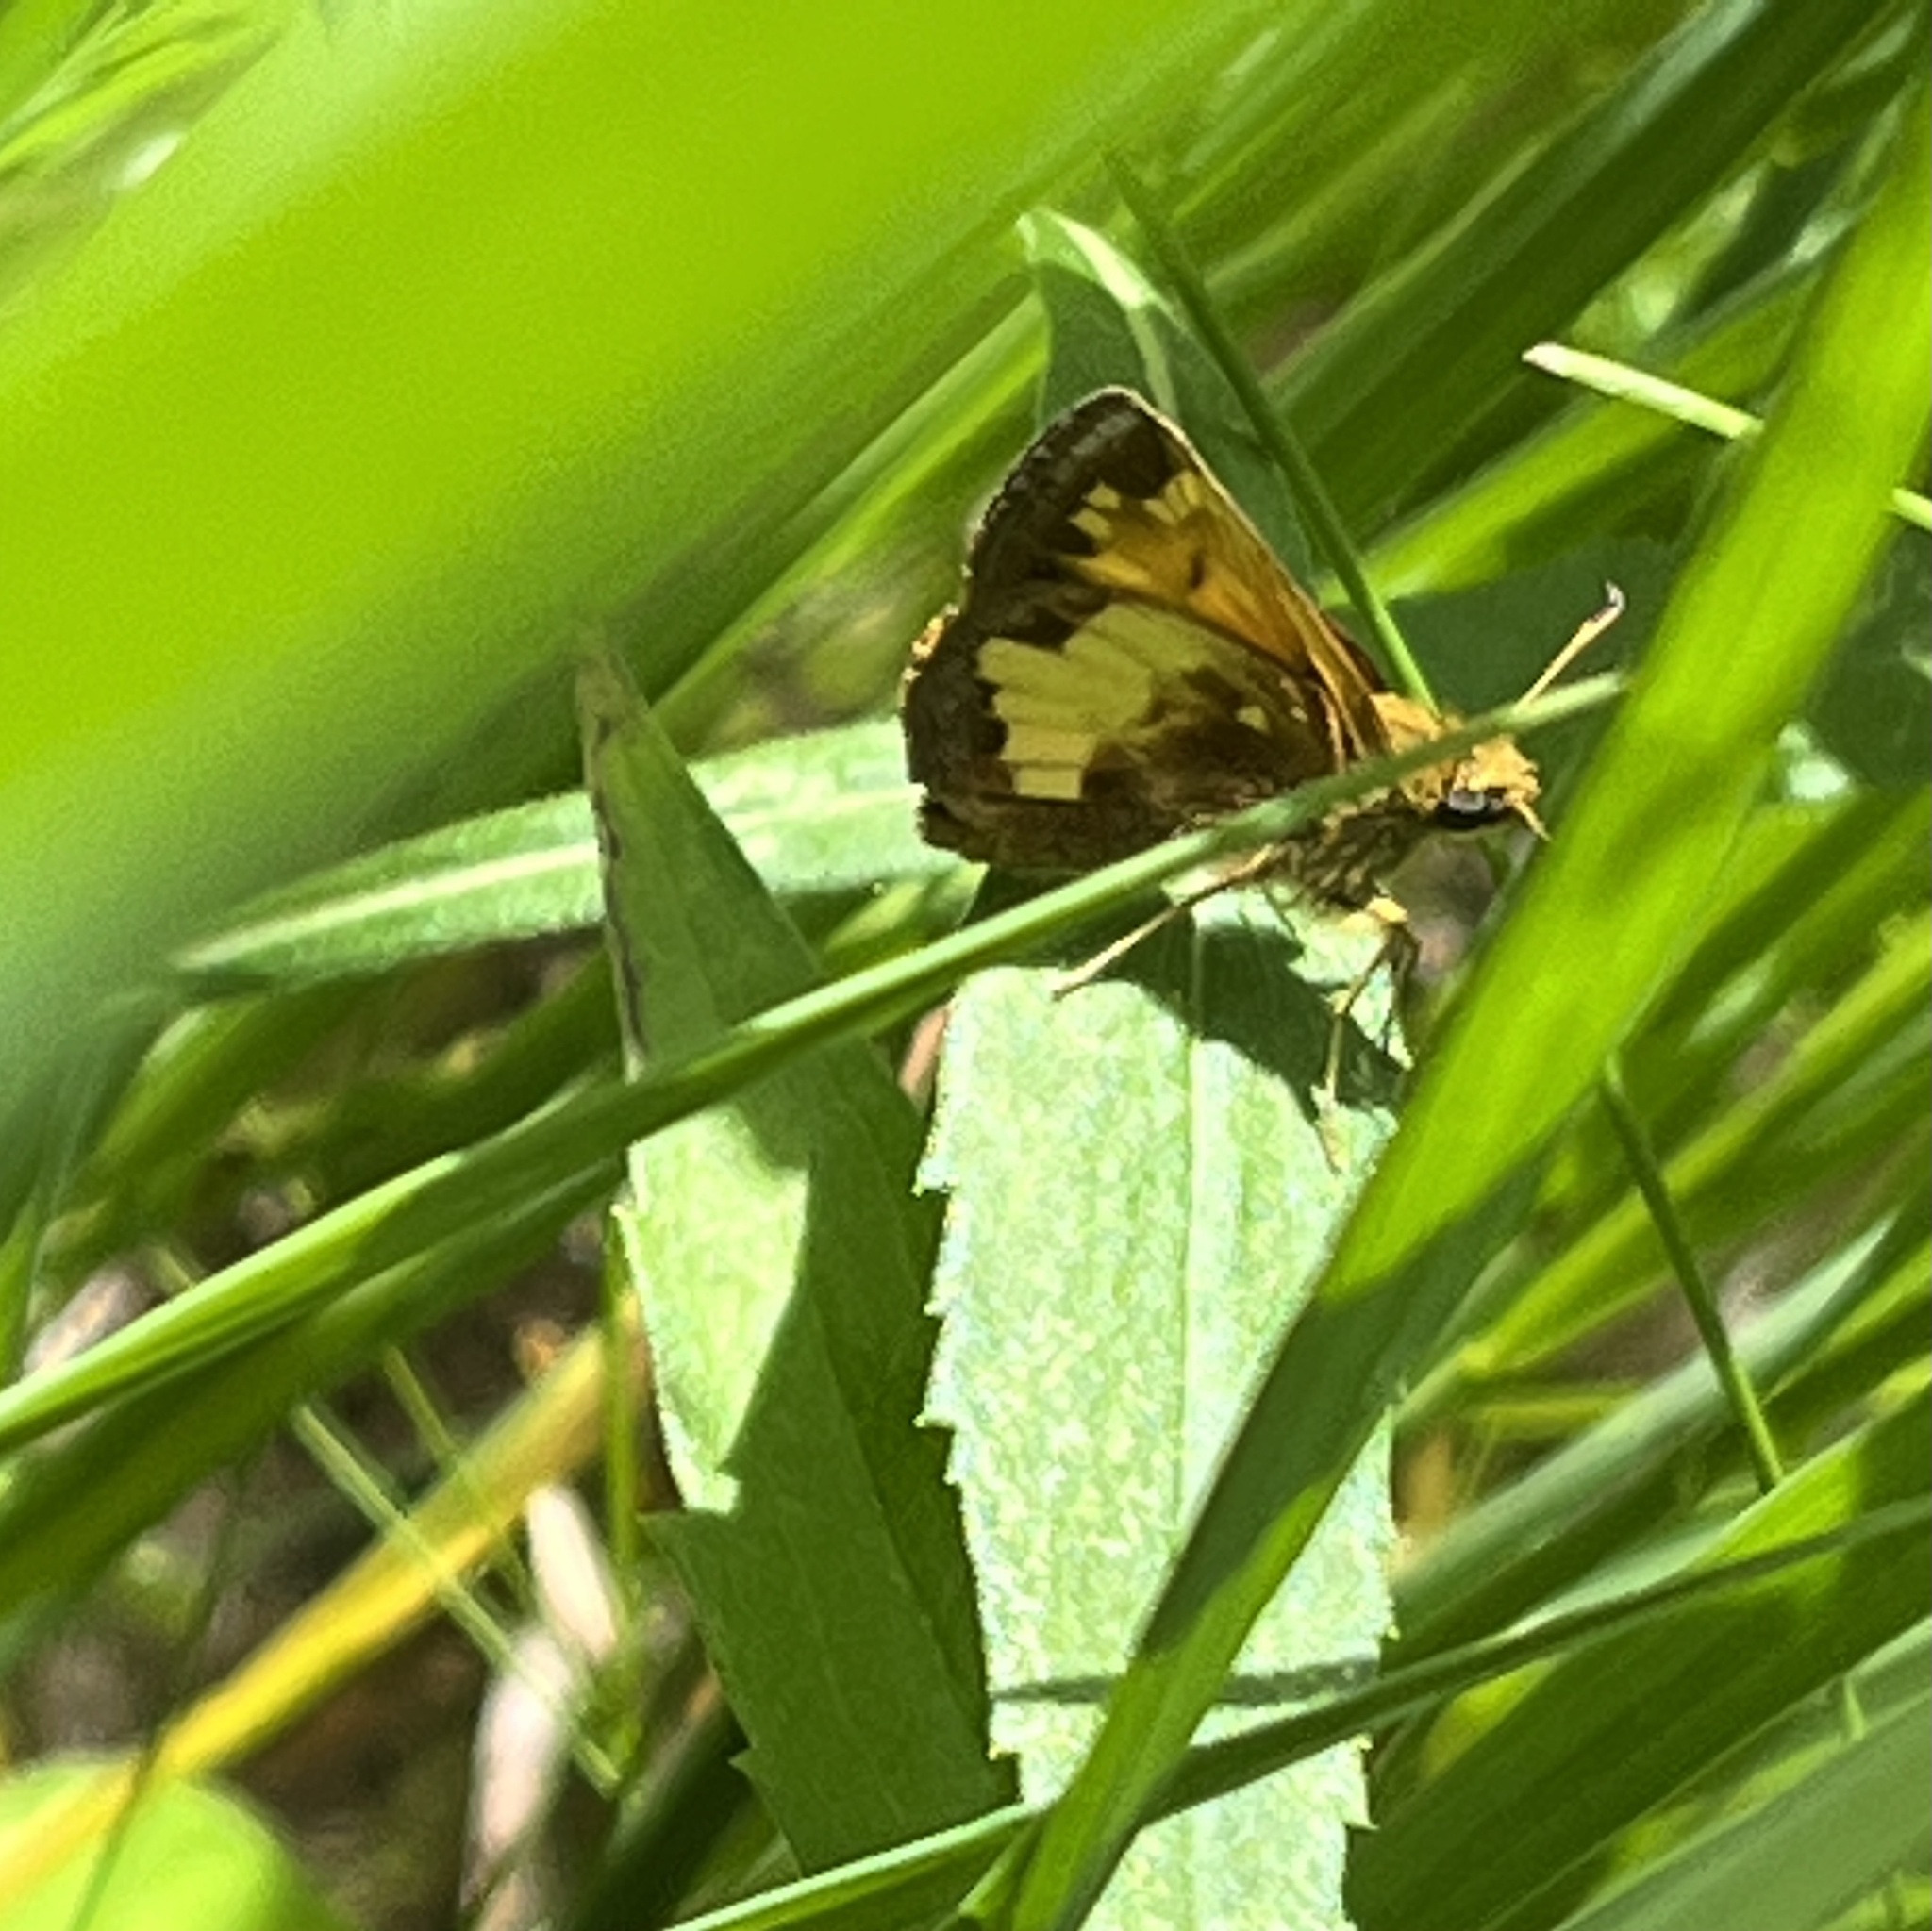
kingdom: Animalia
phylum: Arthropoda
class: Insecta
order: Lepidoptera
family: Hesperiidae
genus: Lon
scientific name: Lon hobomok
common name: Hobomok skipper
